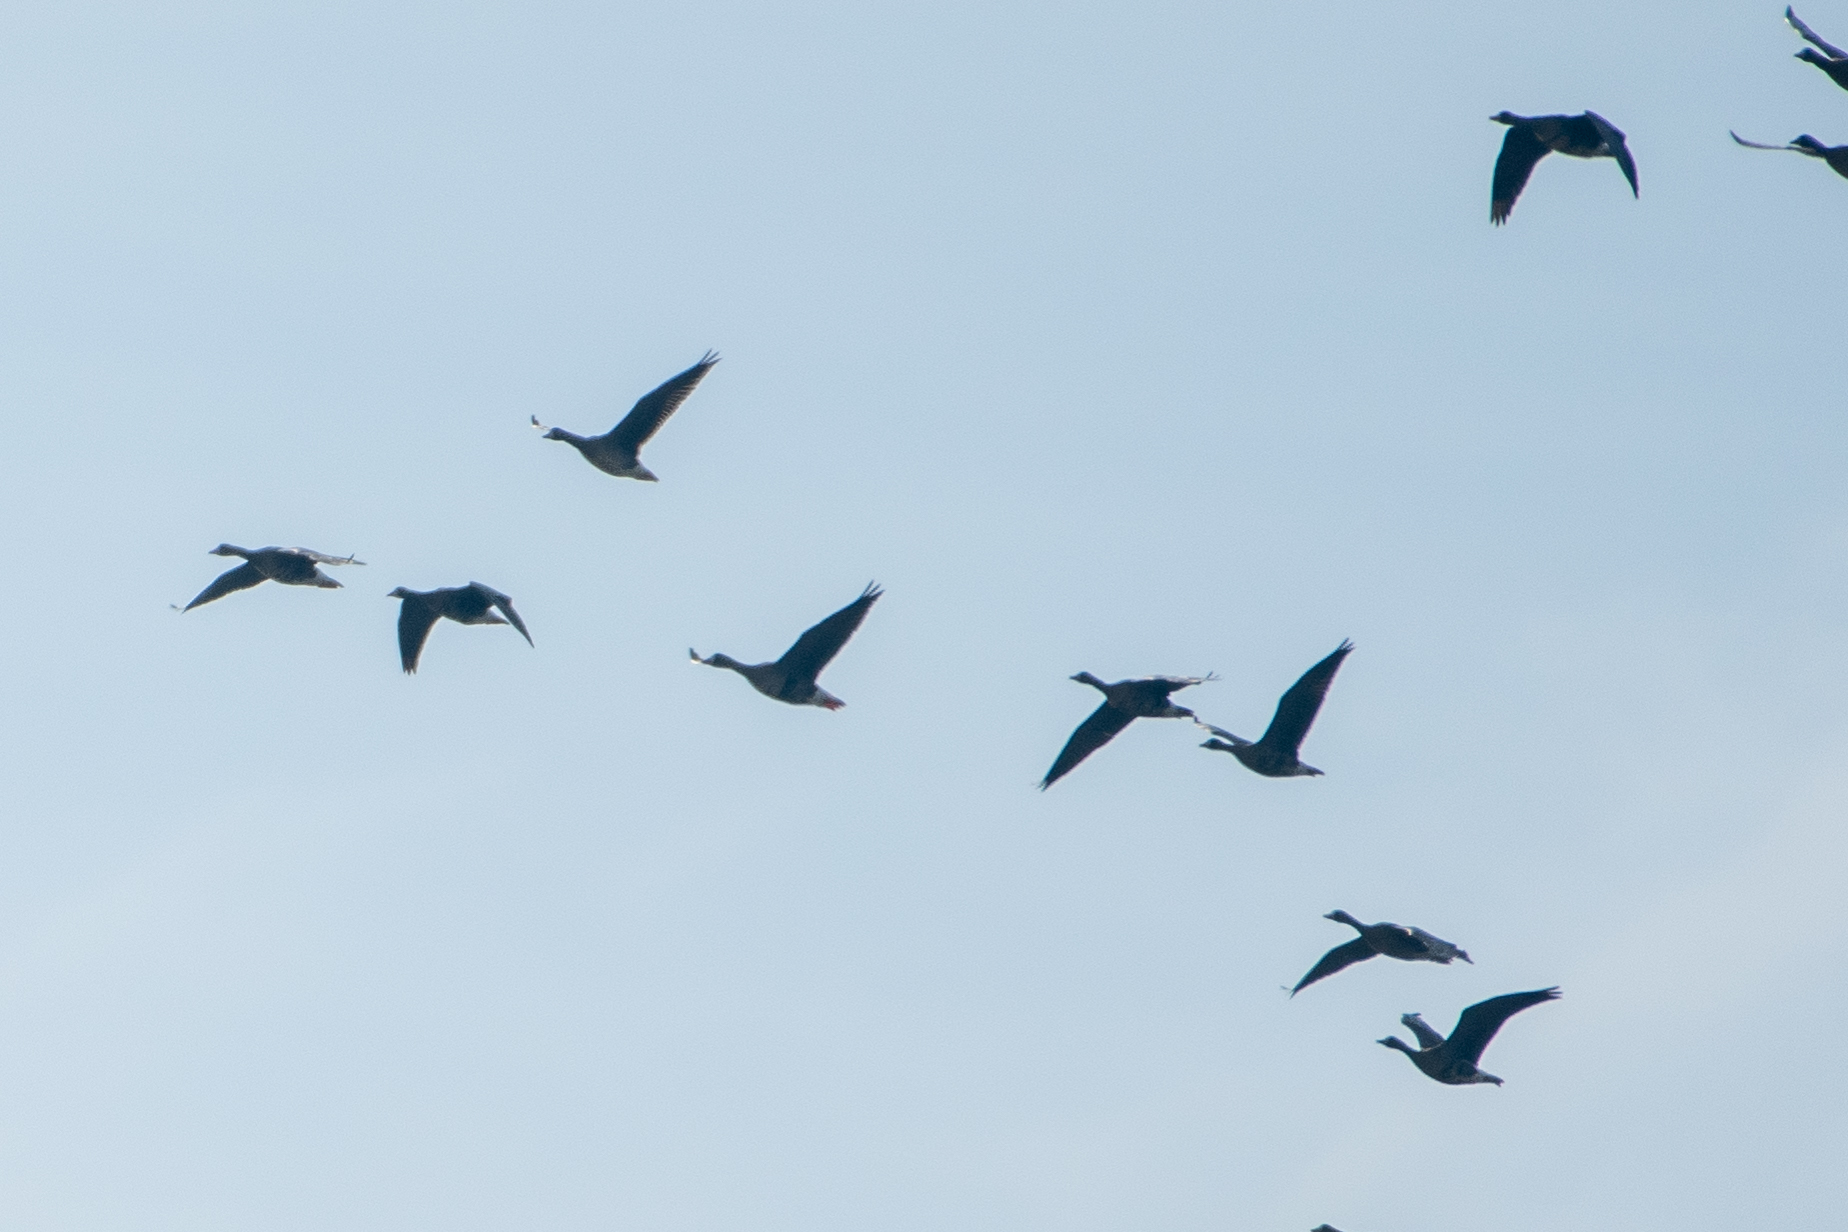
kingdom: Animalia
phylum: Chordata
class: Aves
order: Anseriformes
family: Anatidae
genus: Anser
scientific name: Anser albifrons
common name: Greater white-fronted goose
